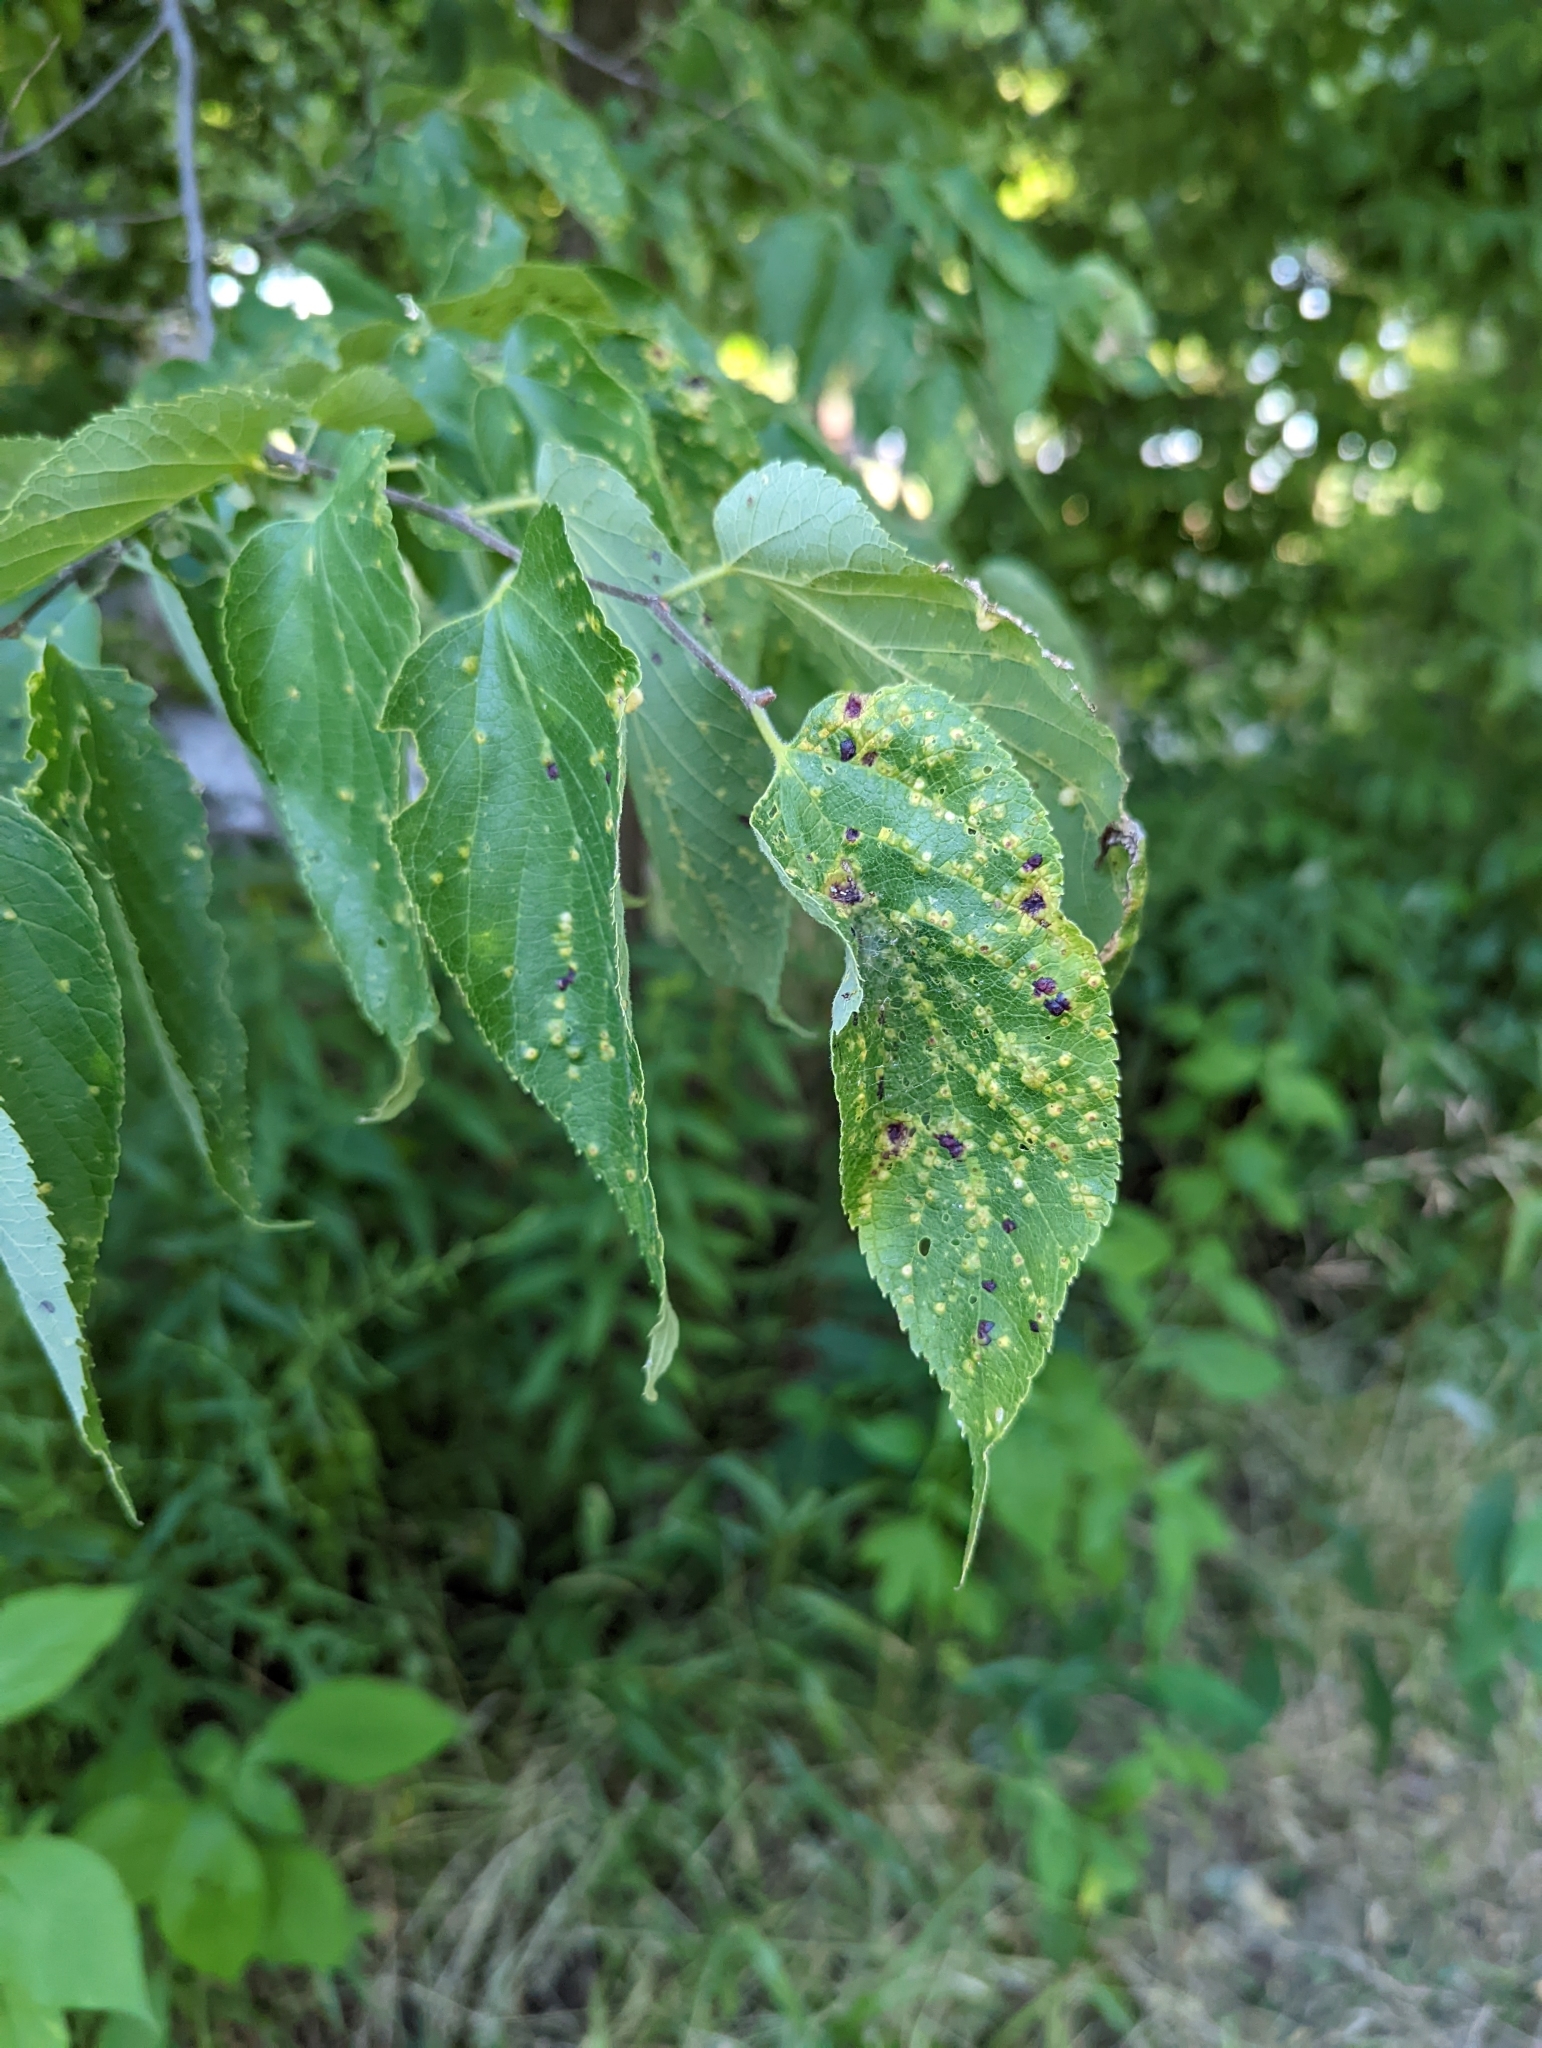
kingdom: Animalia
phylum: Arthropoda
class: Insecta
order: Hemiptera
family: Aphalaridae
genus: Pachypsylla
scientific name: Pachypsylla celtidisvesicula
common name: Hackberry blister gall psyllid
